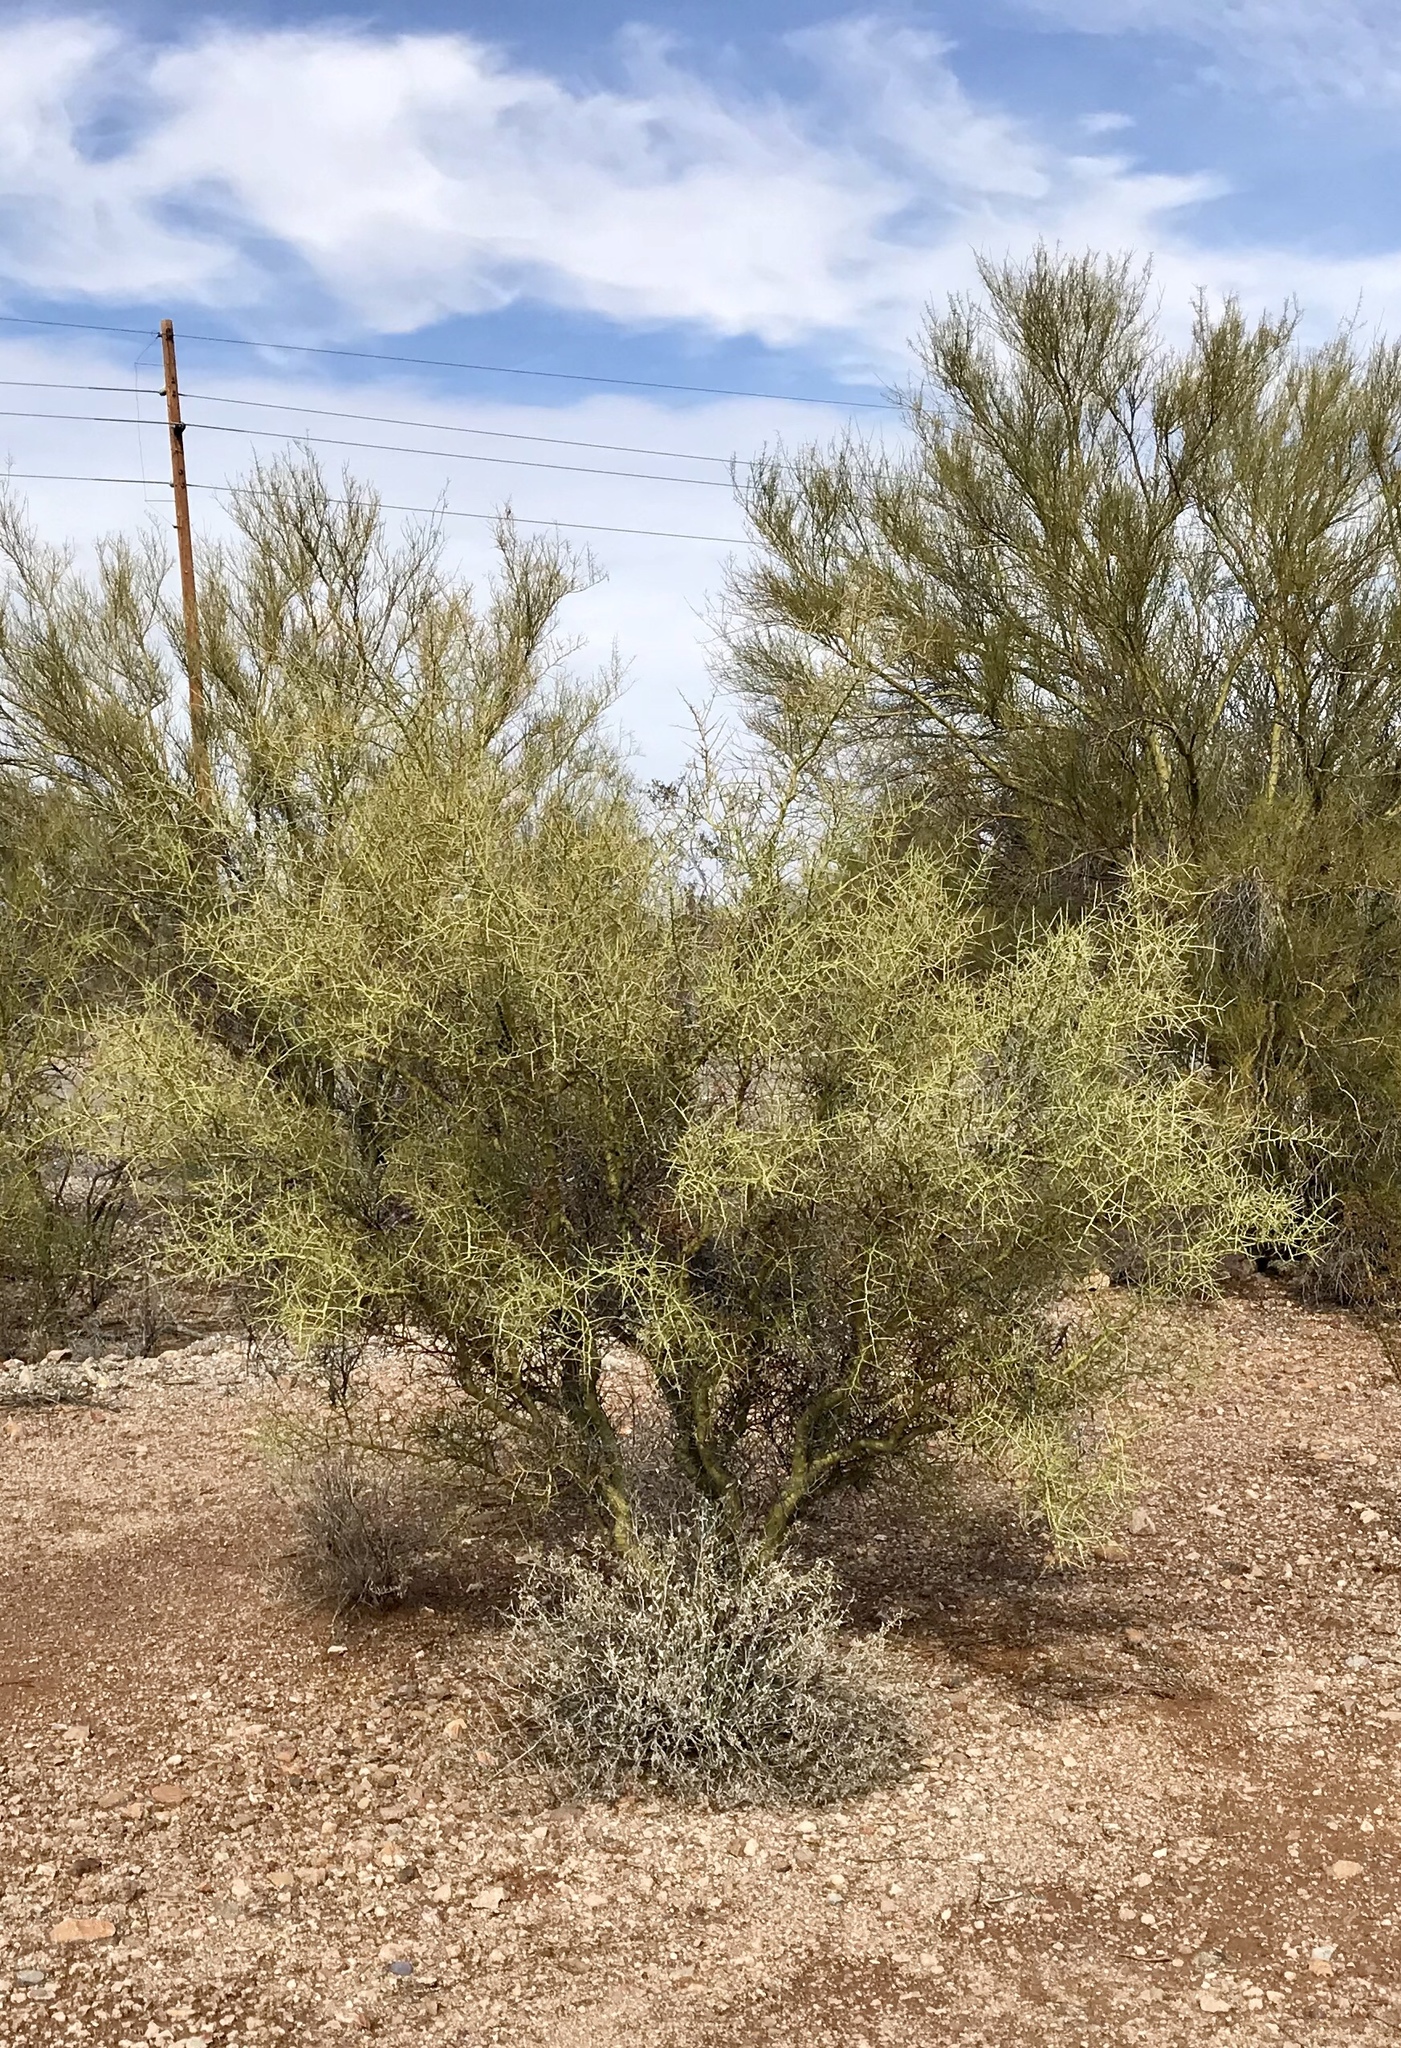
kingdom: Plantae
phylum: Tracheophyta
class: Magnoliopsida
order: Fabales
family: Fabaceae
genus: Parkinsonia
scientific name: Parkinsonia microphylla
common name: Yellow paloverde
